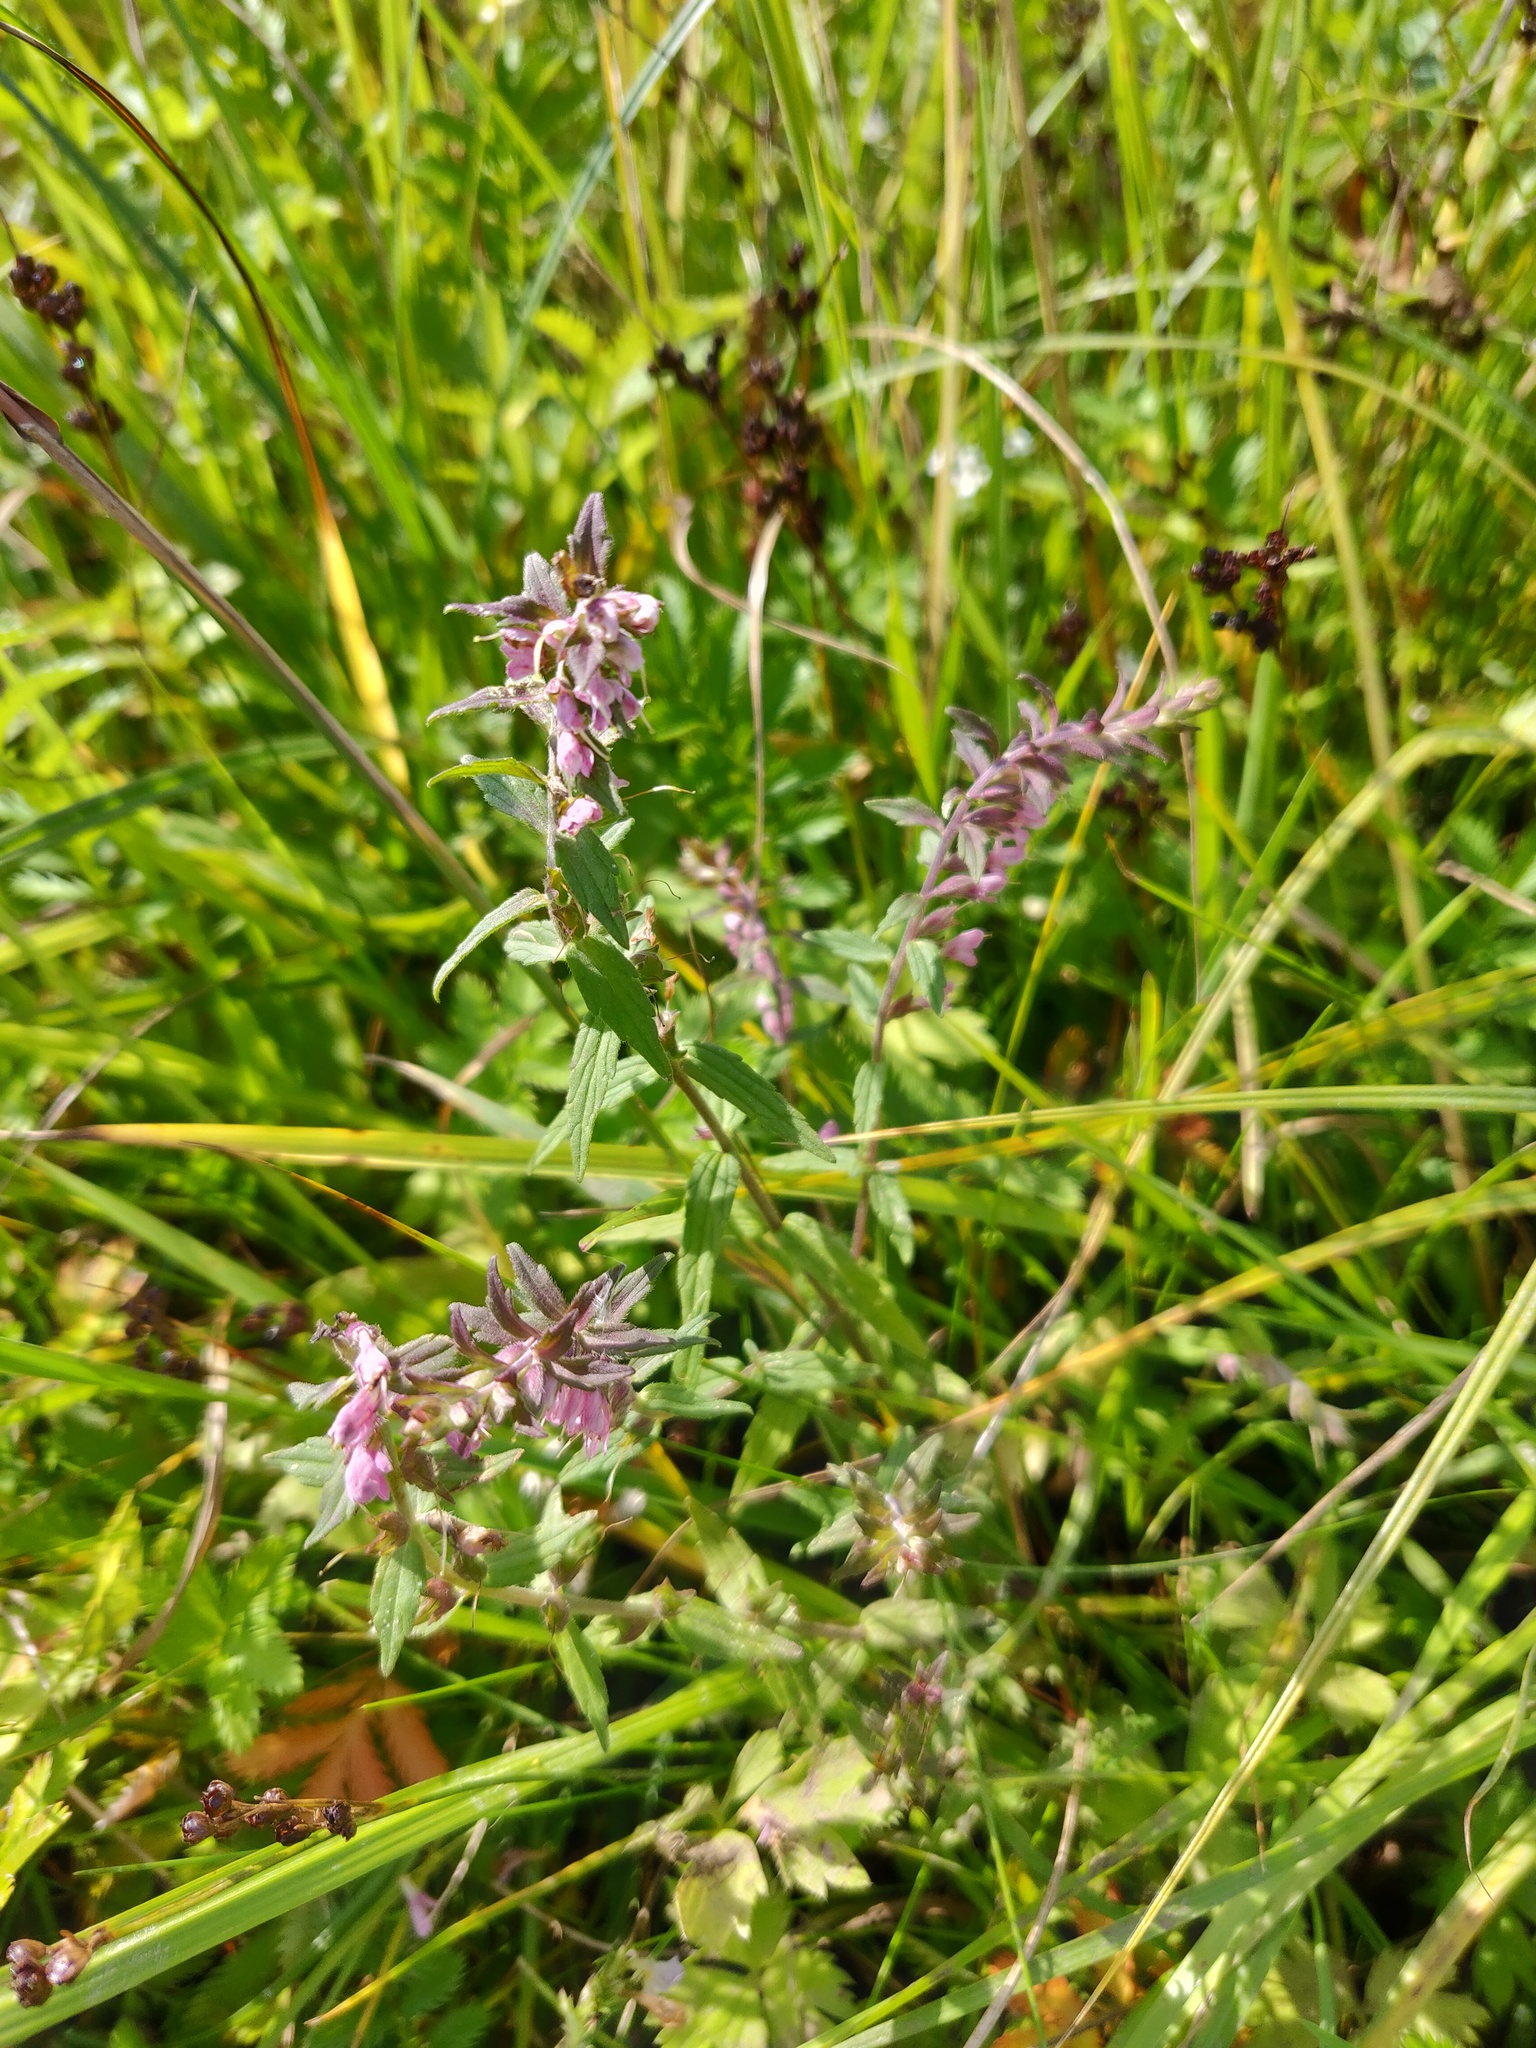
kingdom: Plantae
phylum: Tracheophyta
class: Magnoliopsida
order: Lamiales
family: Orobanchaceae
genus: Odontites
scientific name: Odontites vulgaris
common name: Broomrape
